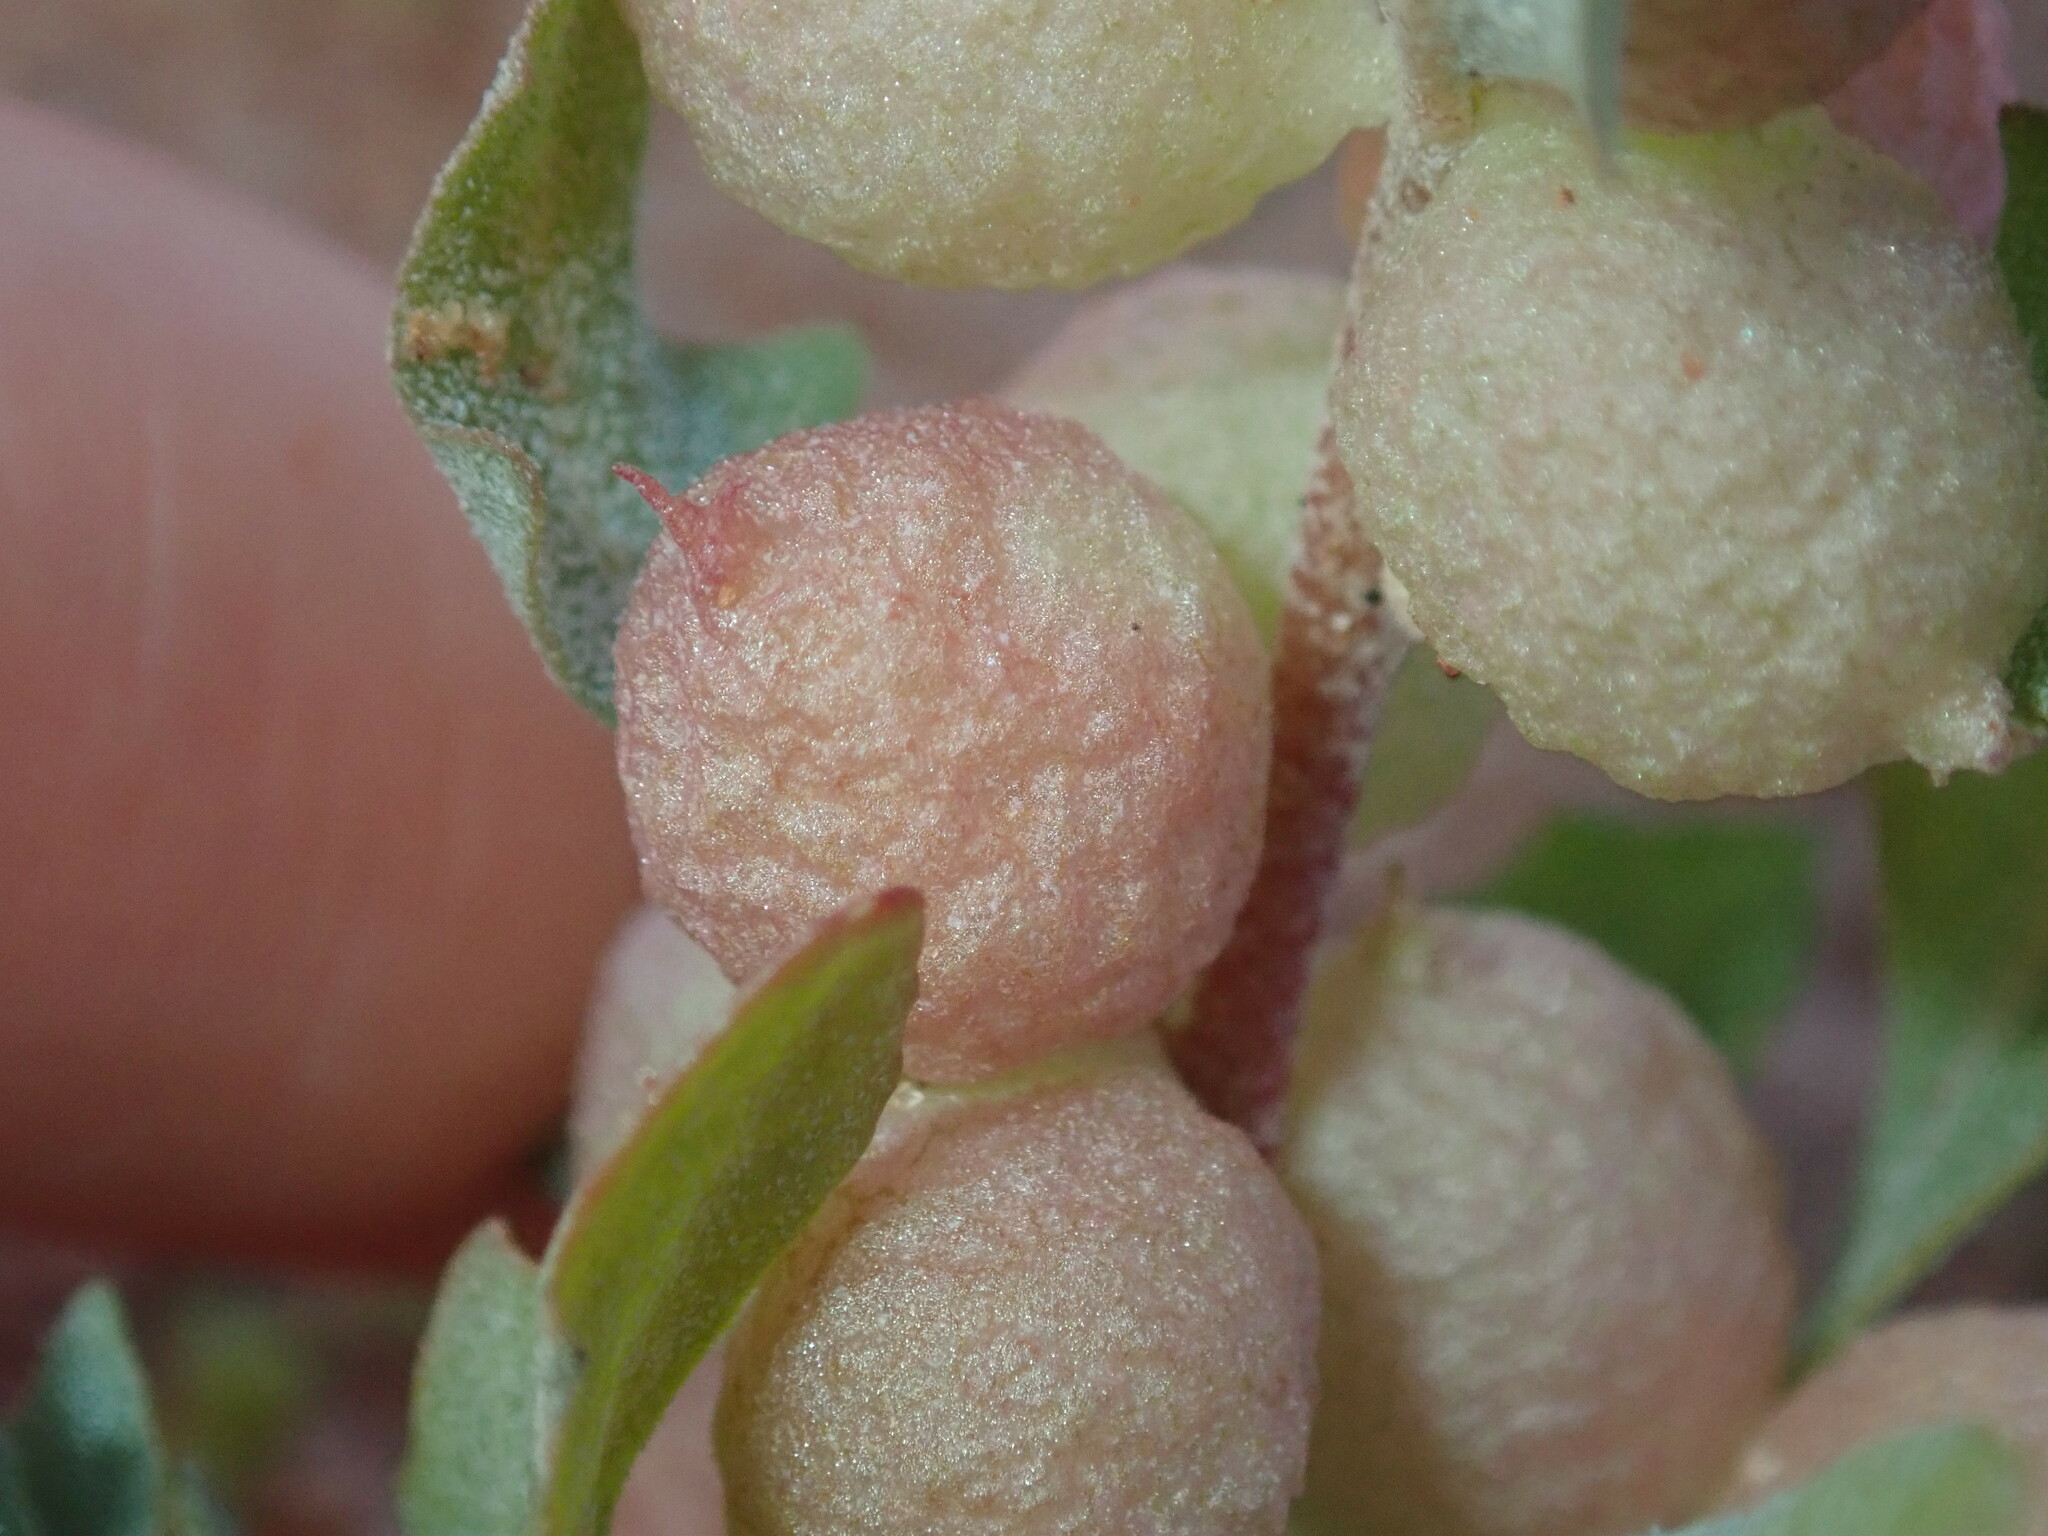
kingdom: Plantae
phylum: Tracheophyta
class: Magnoliopsida
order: Caryophyllales
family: Amaranthaceae
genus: Atriplex
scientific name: Atriplex spongiosa
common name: Pop saltbush
